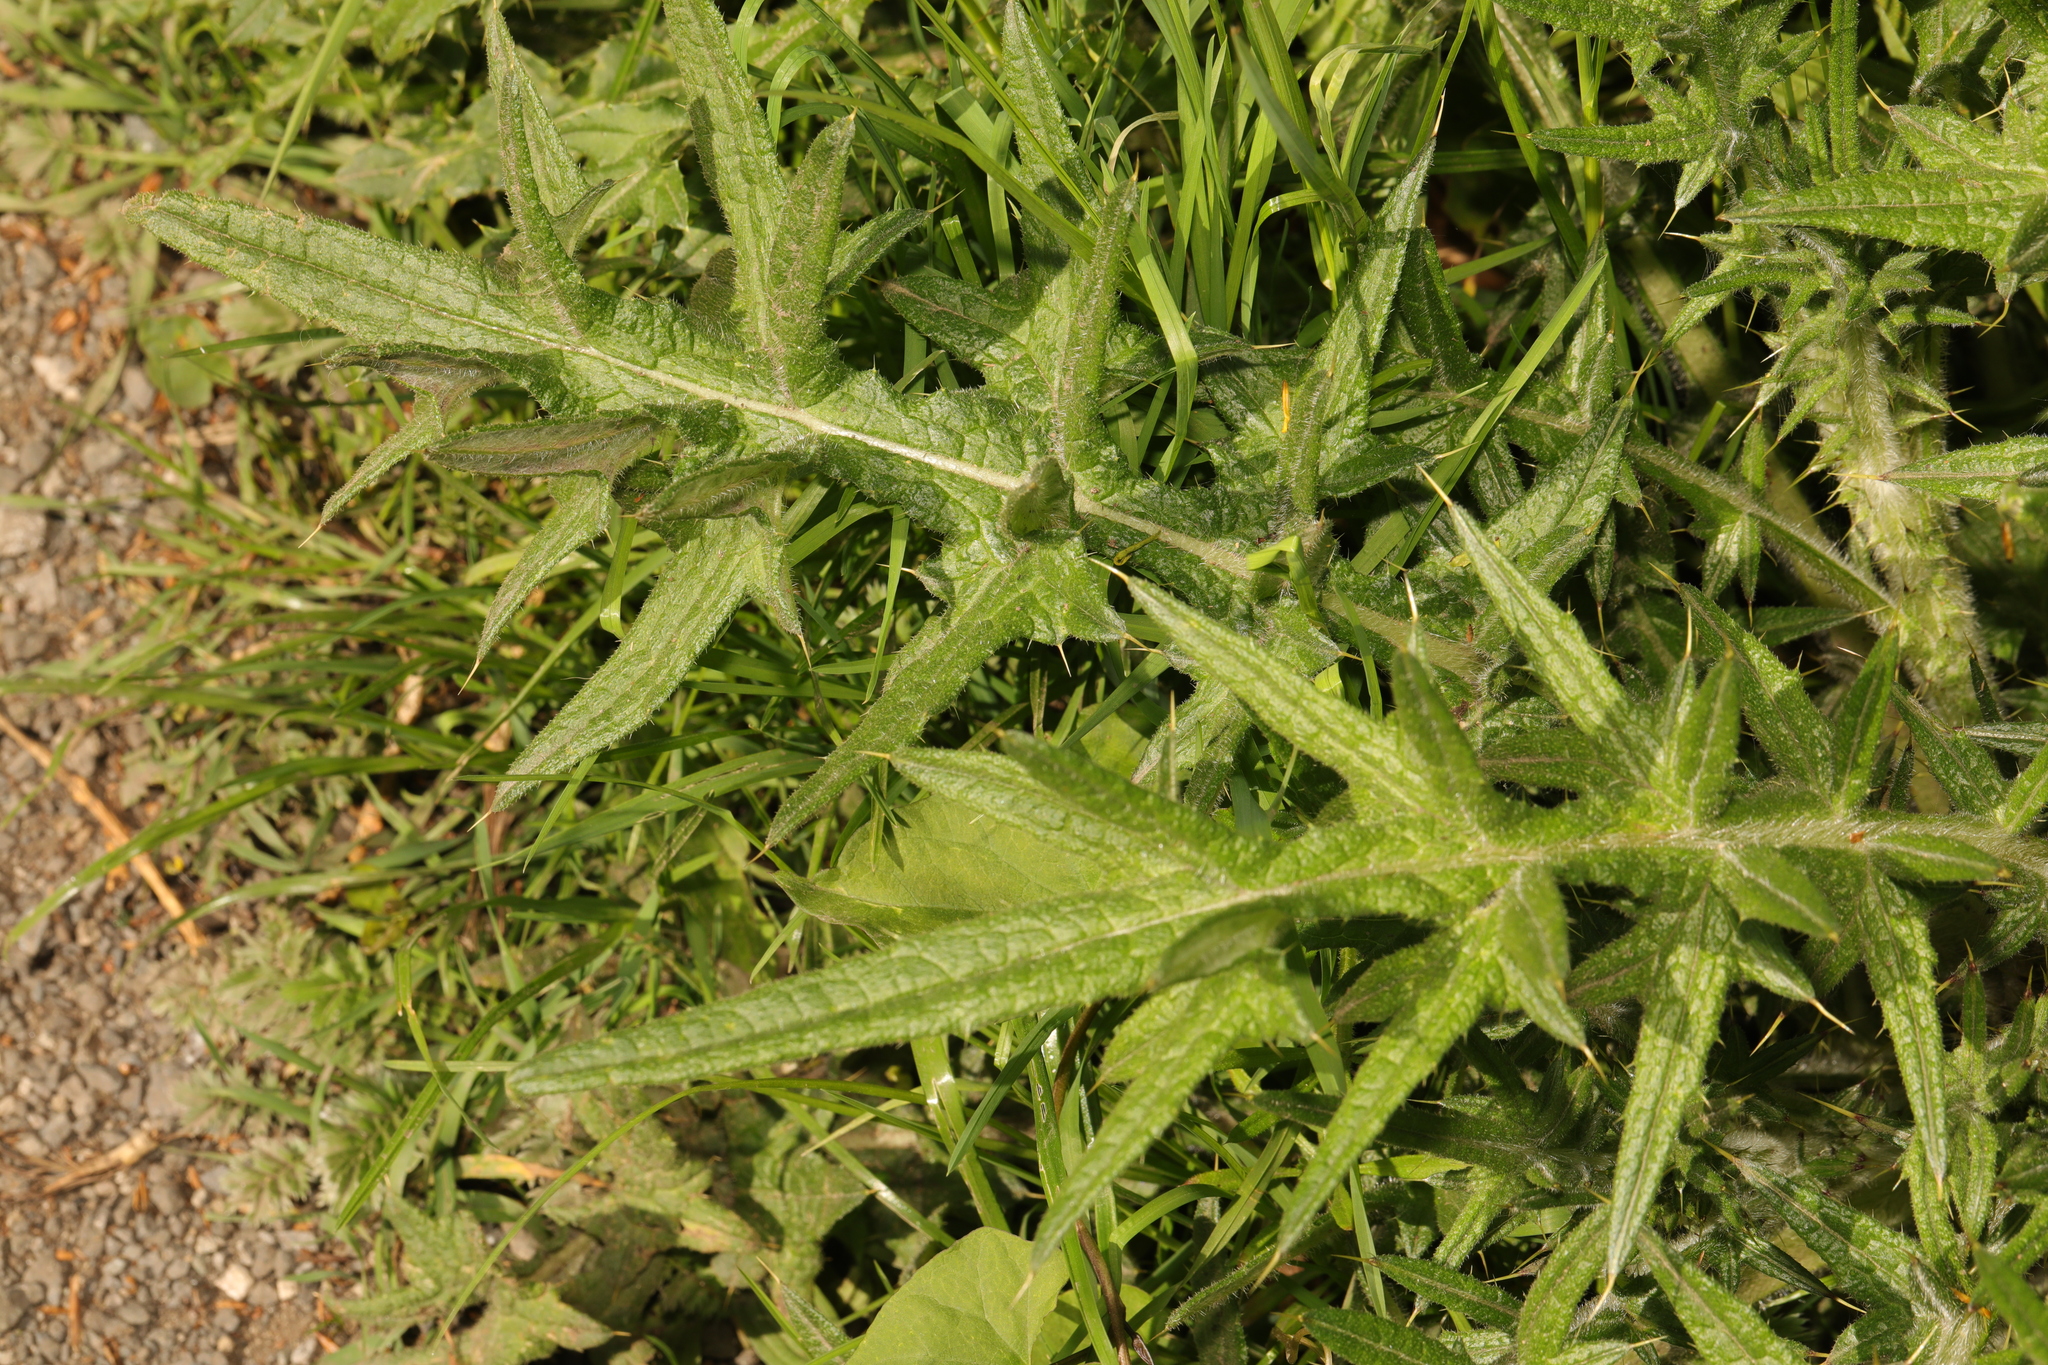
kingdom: Plantae
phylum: Tracheophyta
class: Magnoliopsida
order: Asterales
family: Asteraceae
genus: Cirsium
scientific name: Cirsium vulgare
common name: Bull thistle
